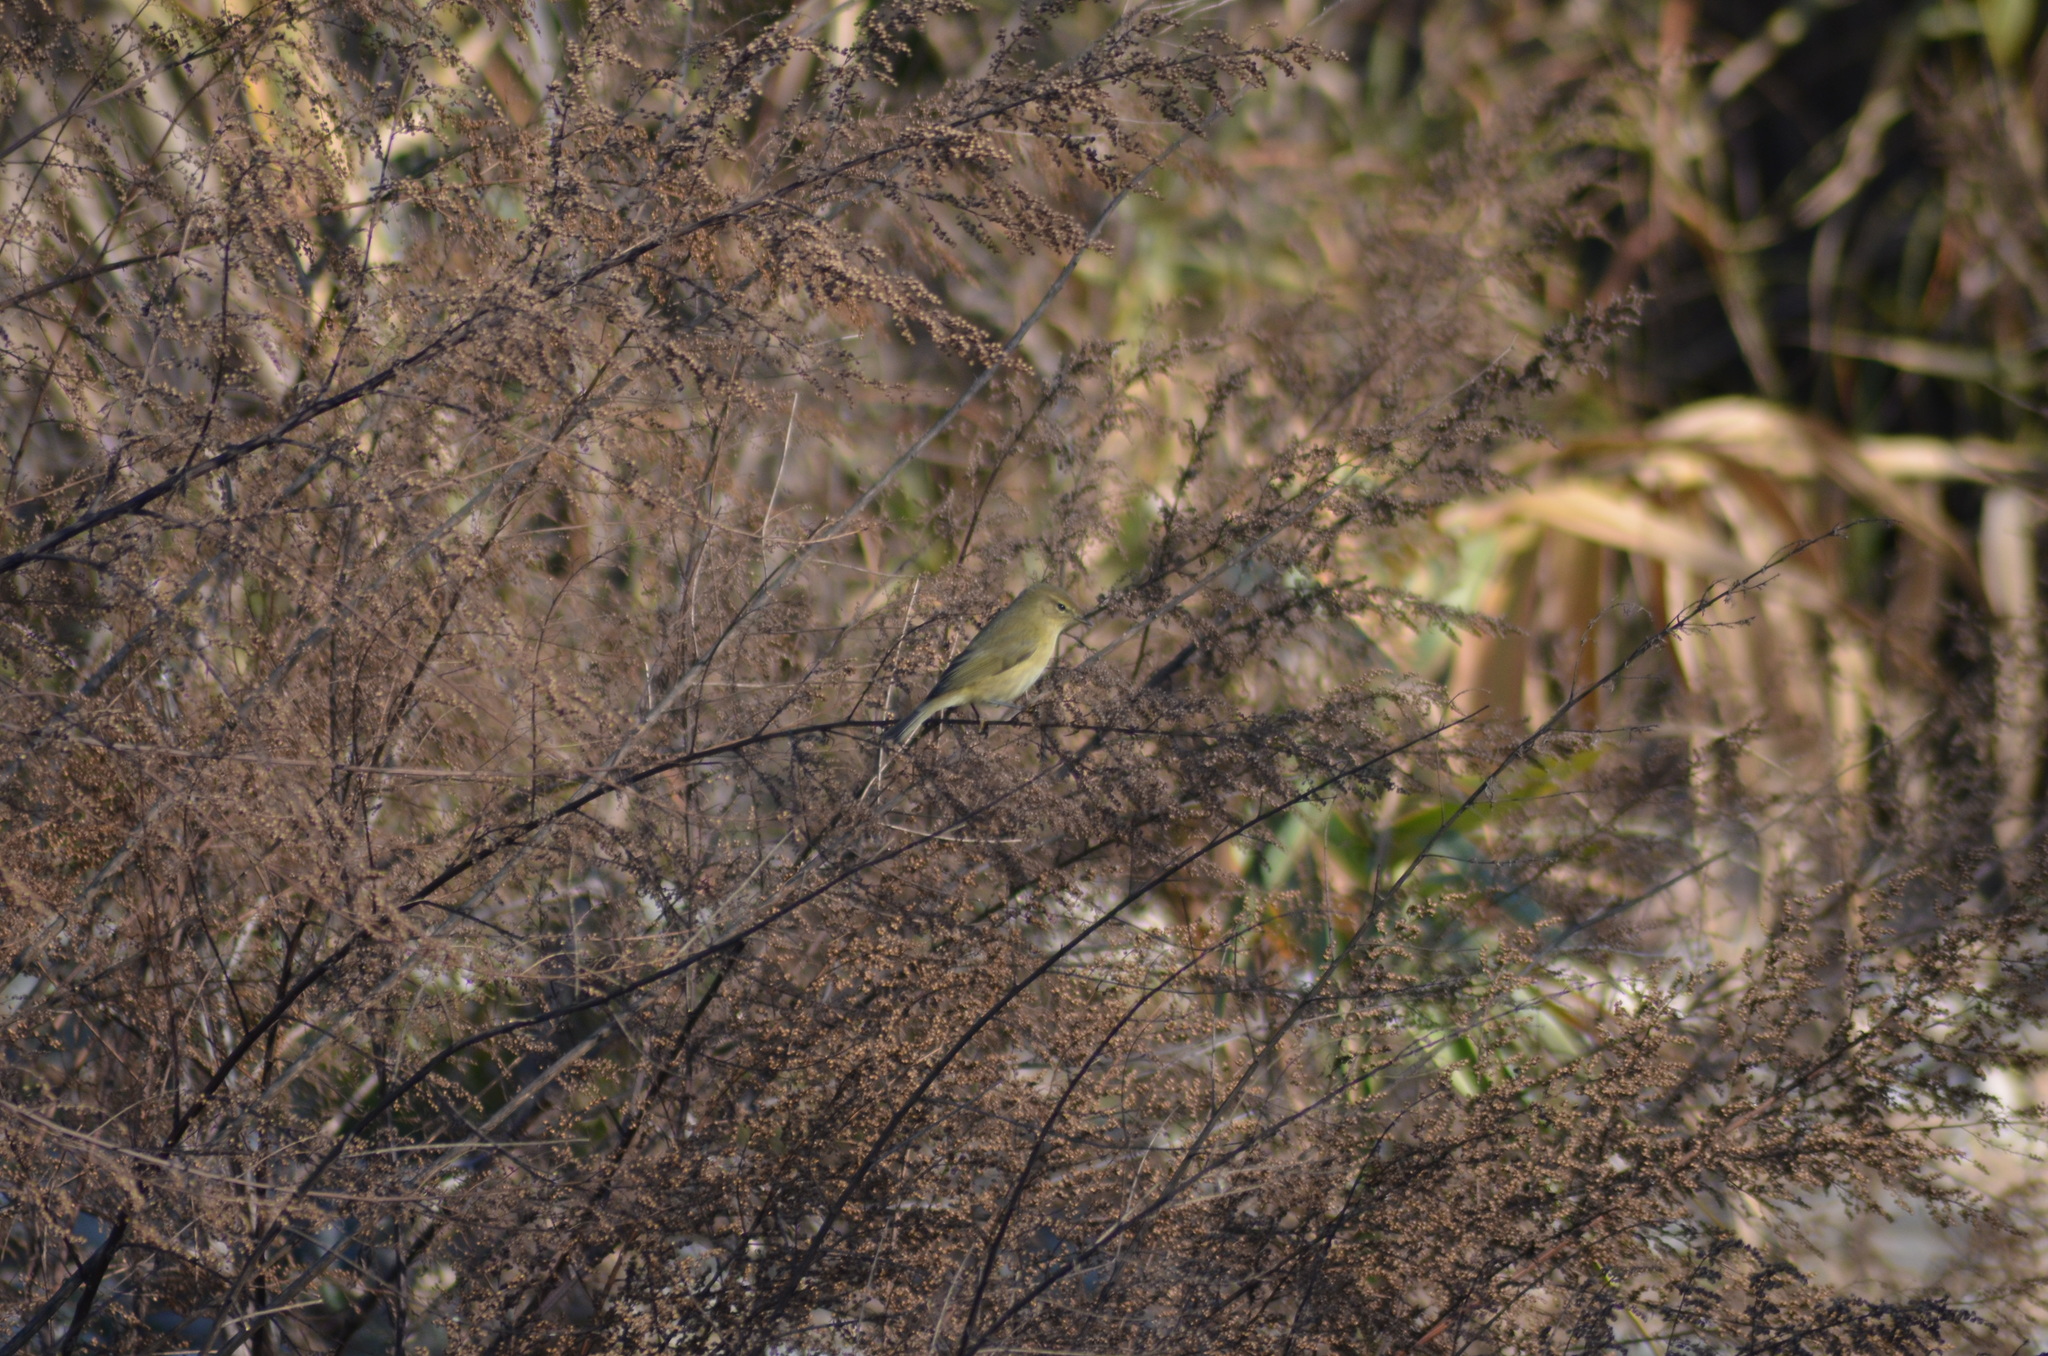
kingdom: Animalia
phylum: Chordata
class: Aves
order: Passeriformes
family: Phylloscopidae
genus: Phylloscopus
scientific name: Phylloscopus collybita
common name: Common chiffchaff
